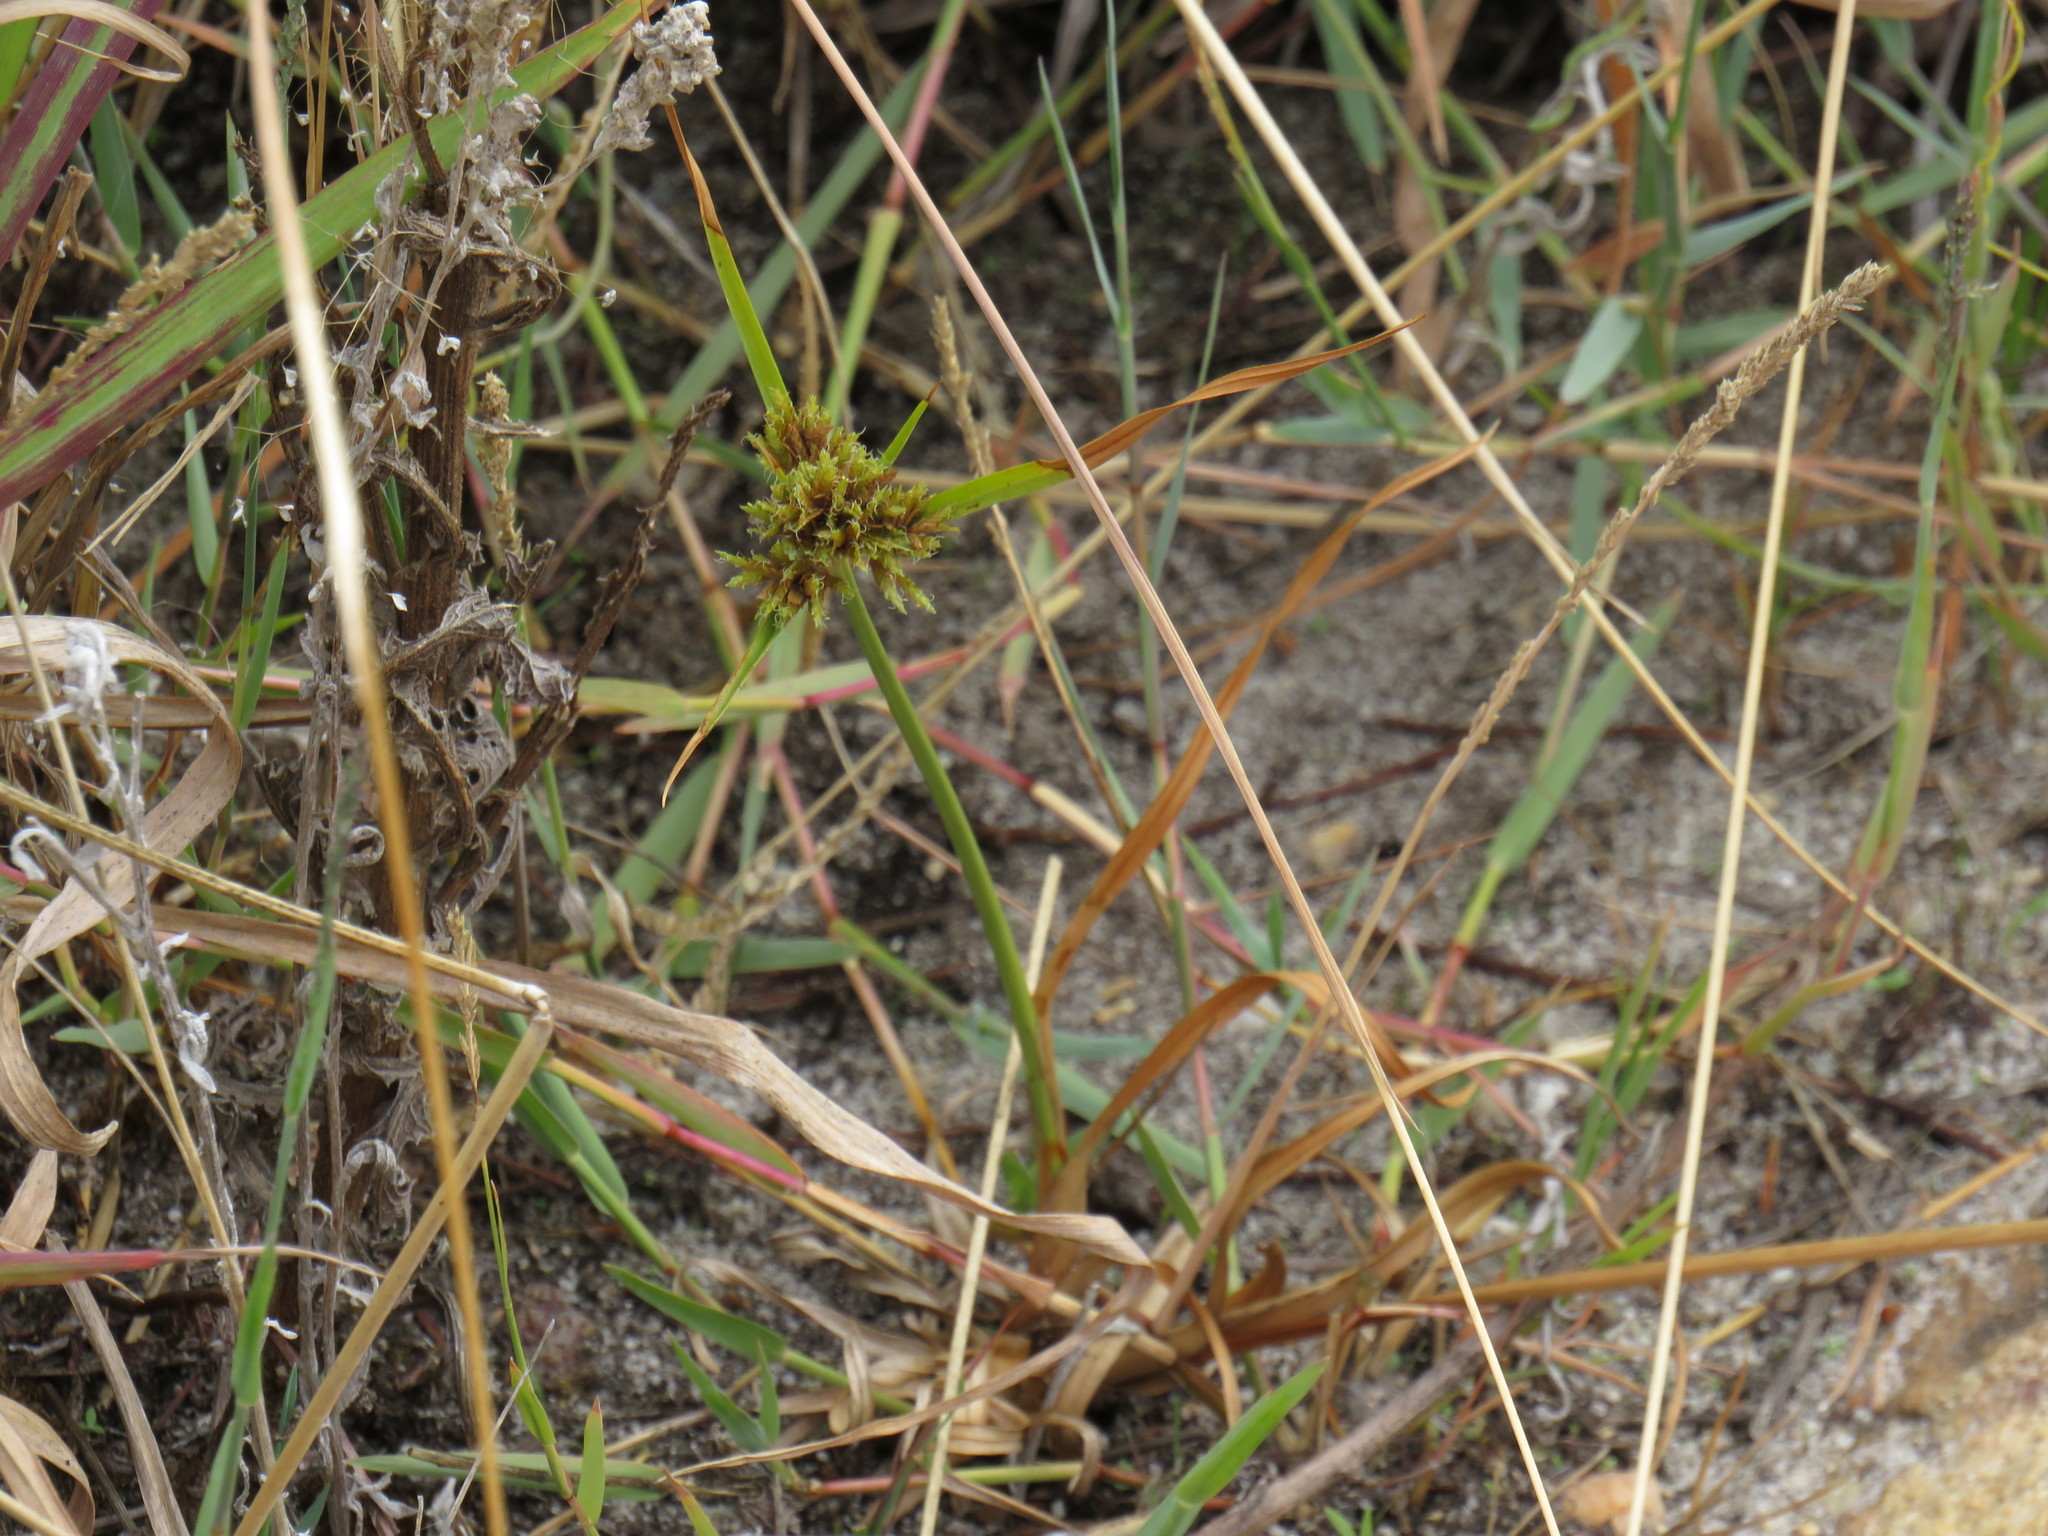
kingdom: Plantae
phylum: Tracheophyta
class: Liliopsida
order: Poales
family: Cyperaceae
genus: Cyperus
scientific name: Cyperus polystachyos
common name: Bunchy flat sedge
